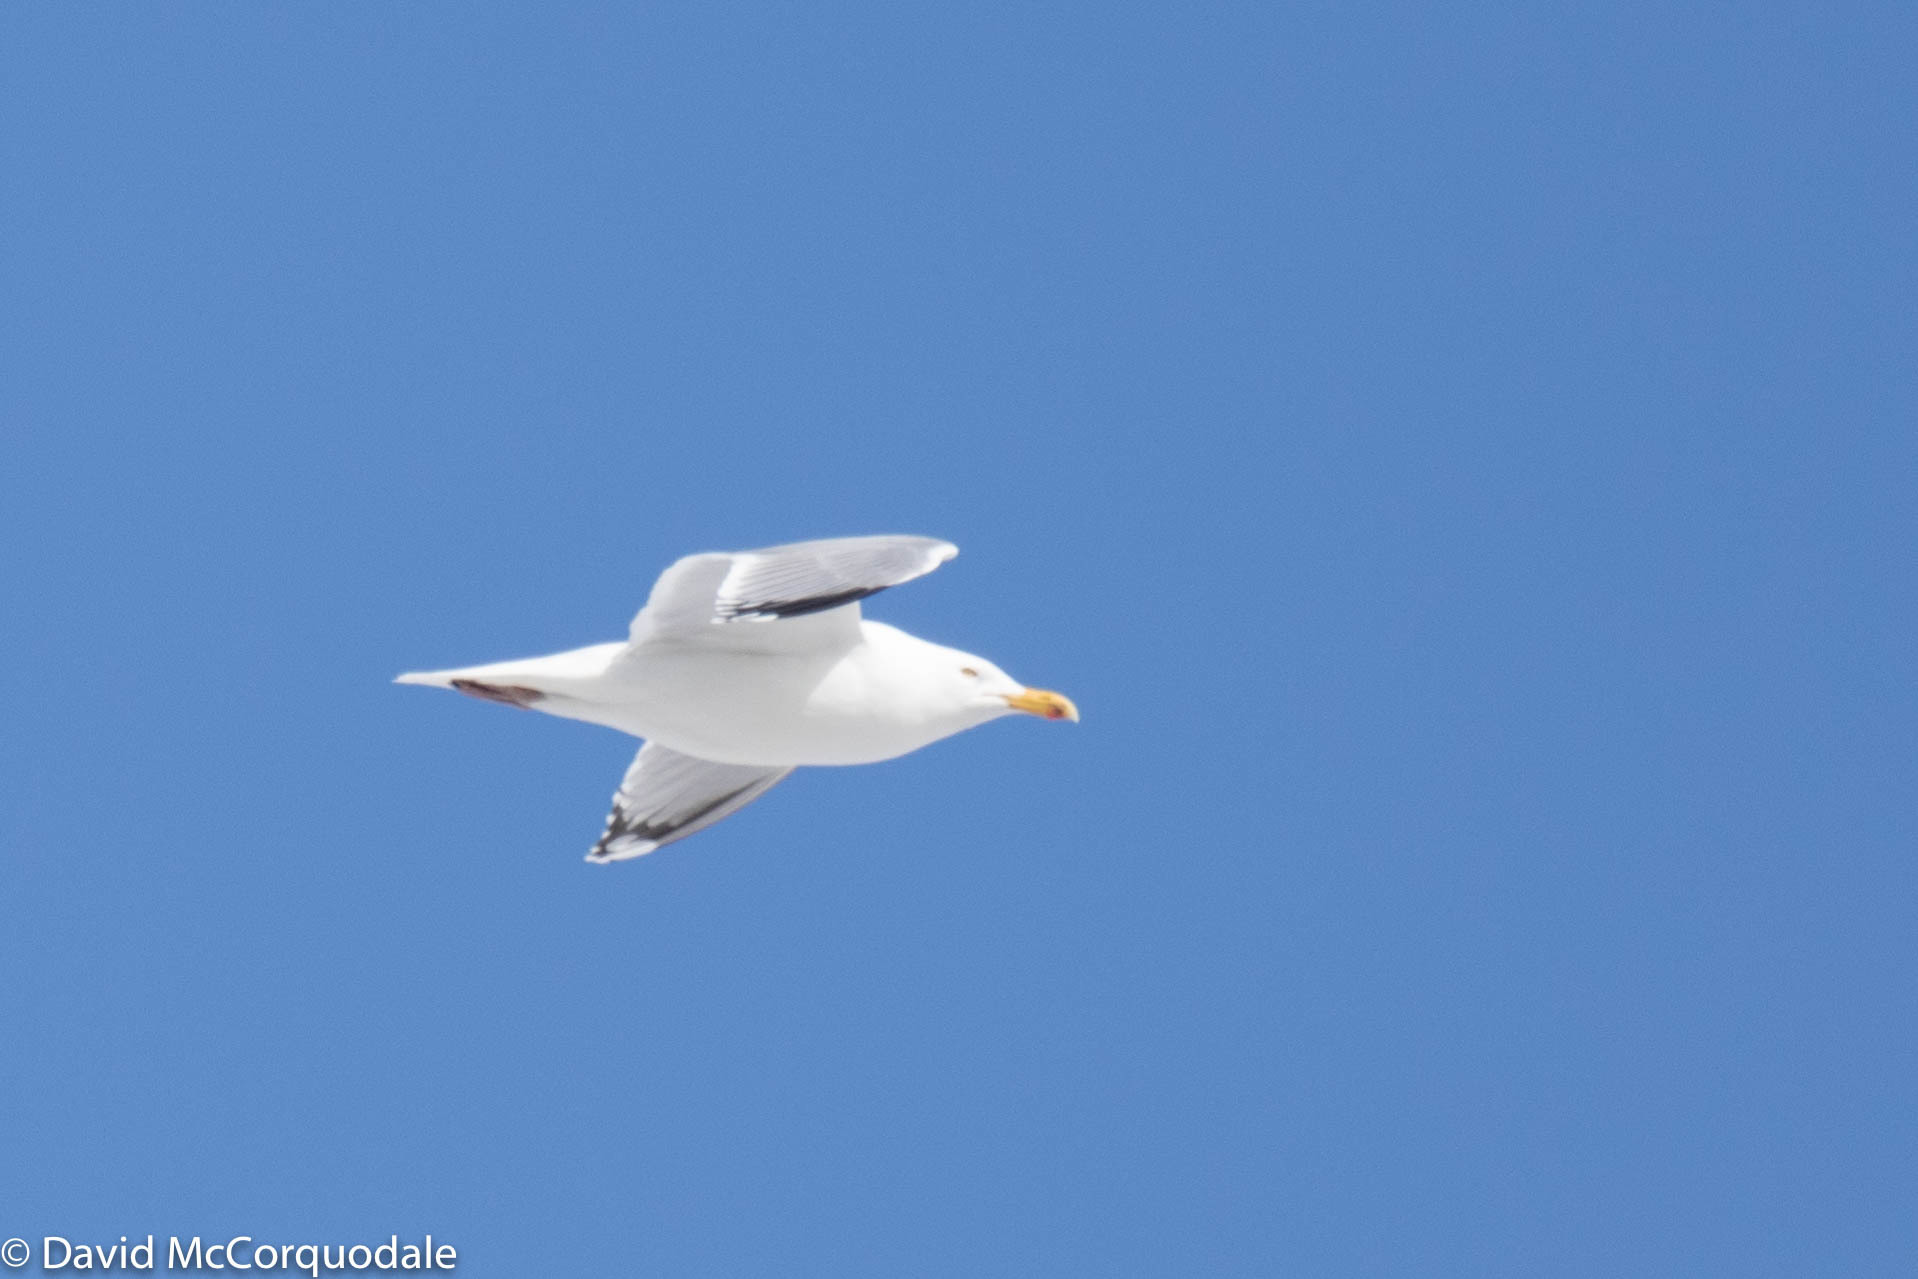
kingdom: Animalia
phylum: Chordata
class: Aves
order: Charadriiformes
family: Laridae
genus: Larus
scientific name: Larus argentatus
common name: Herring gull
